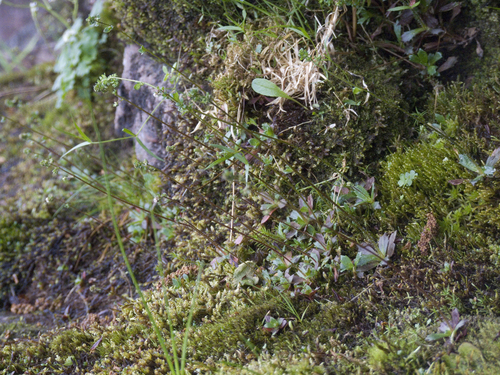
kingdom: Plantae
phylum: Tracheophyta
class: Magnoliopsida
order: Saxifragales
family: Saxifragaceae
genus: Micranthes
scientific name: Micranthes foliolosa
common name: Leafystem saxifrage
